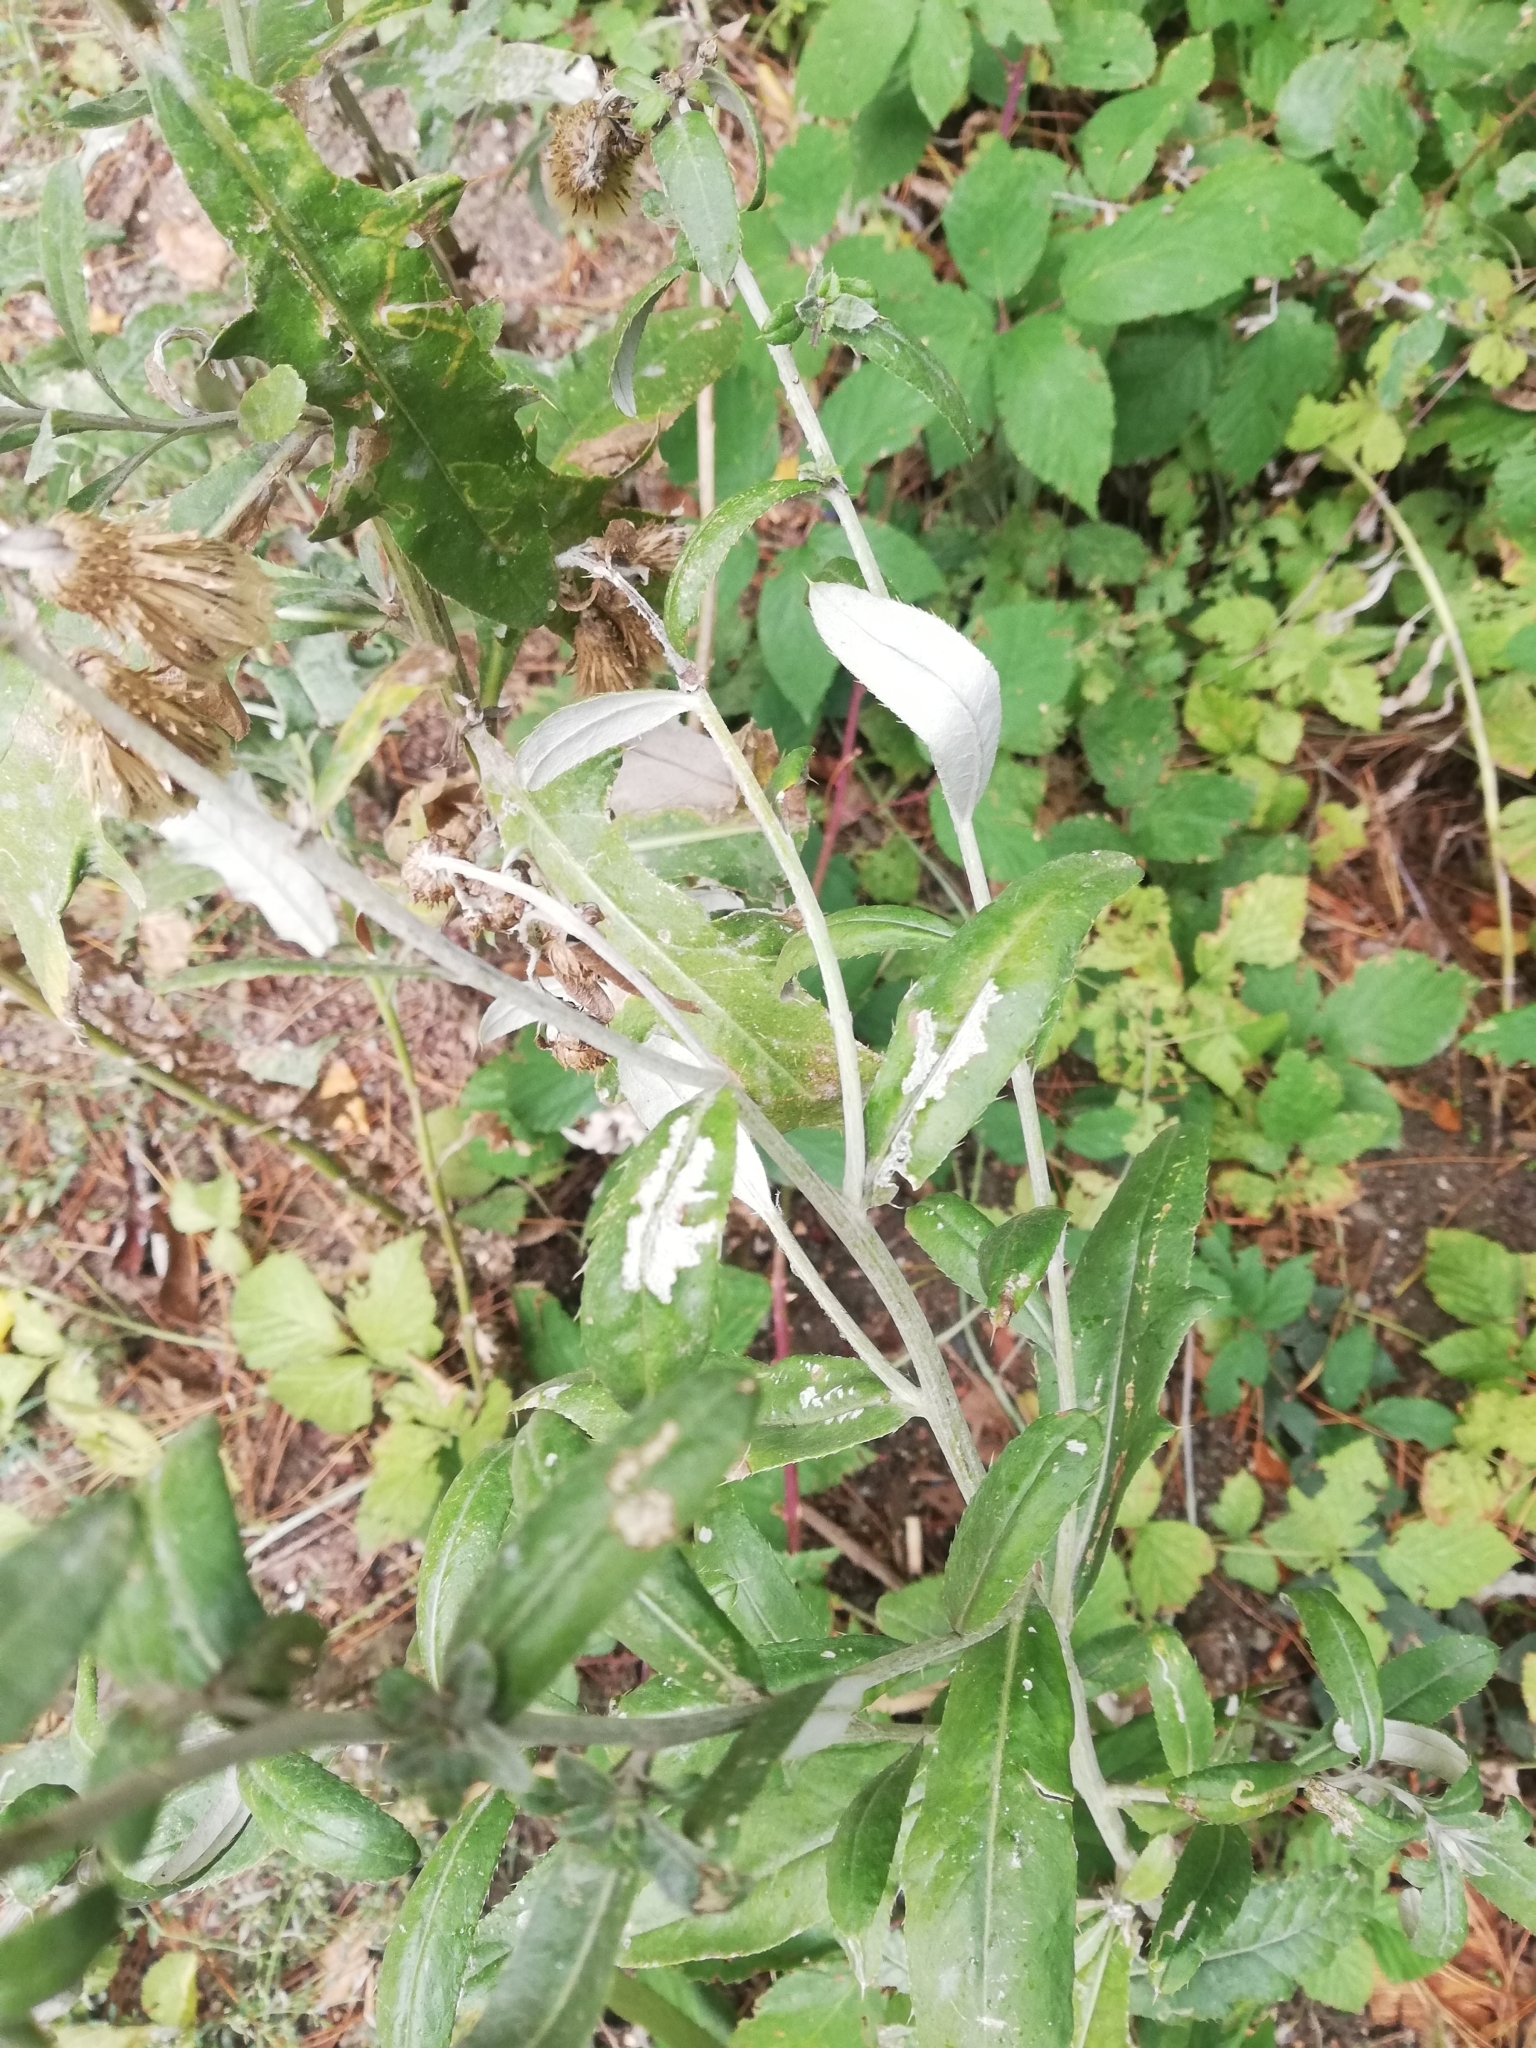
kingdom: Plantae
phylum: Tracheophyta
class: Magnoliopsida
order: Asterales
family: Asteraceae
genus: Cirsium
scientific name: Cirsium arvense
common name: Creeping thistle
